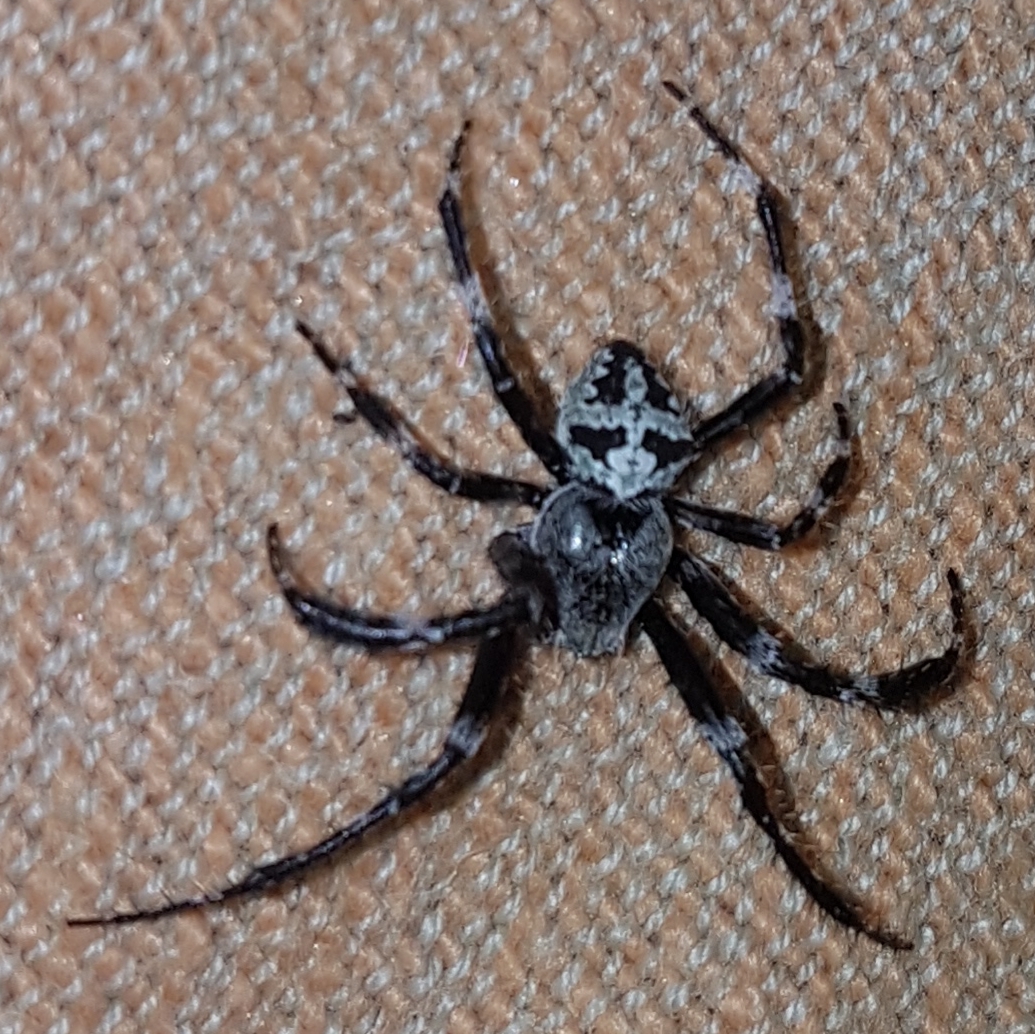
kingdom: Animalia
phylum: Arthropoda
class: Arachnida
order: Araneae
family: Araneidae
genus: Araneus
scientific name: Araneus angulatus
